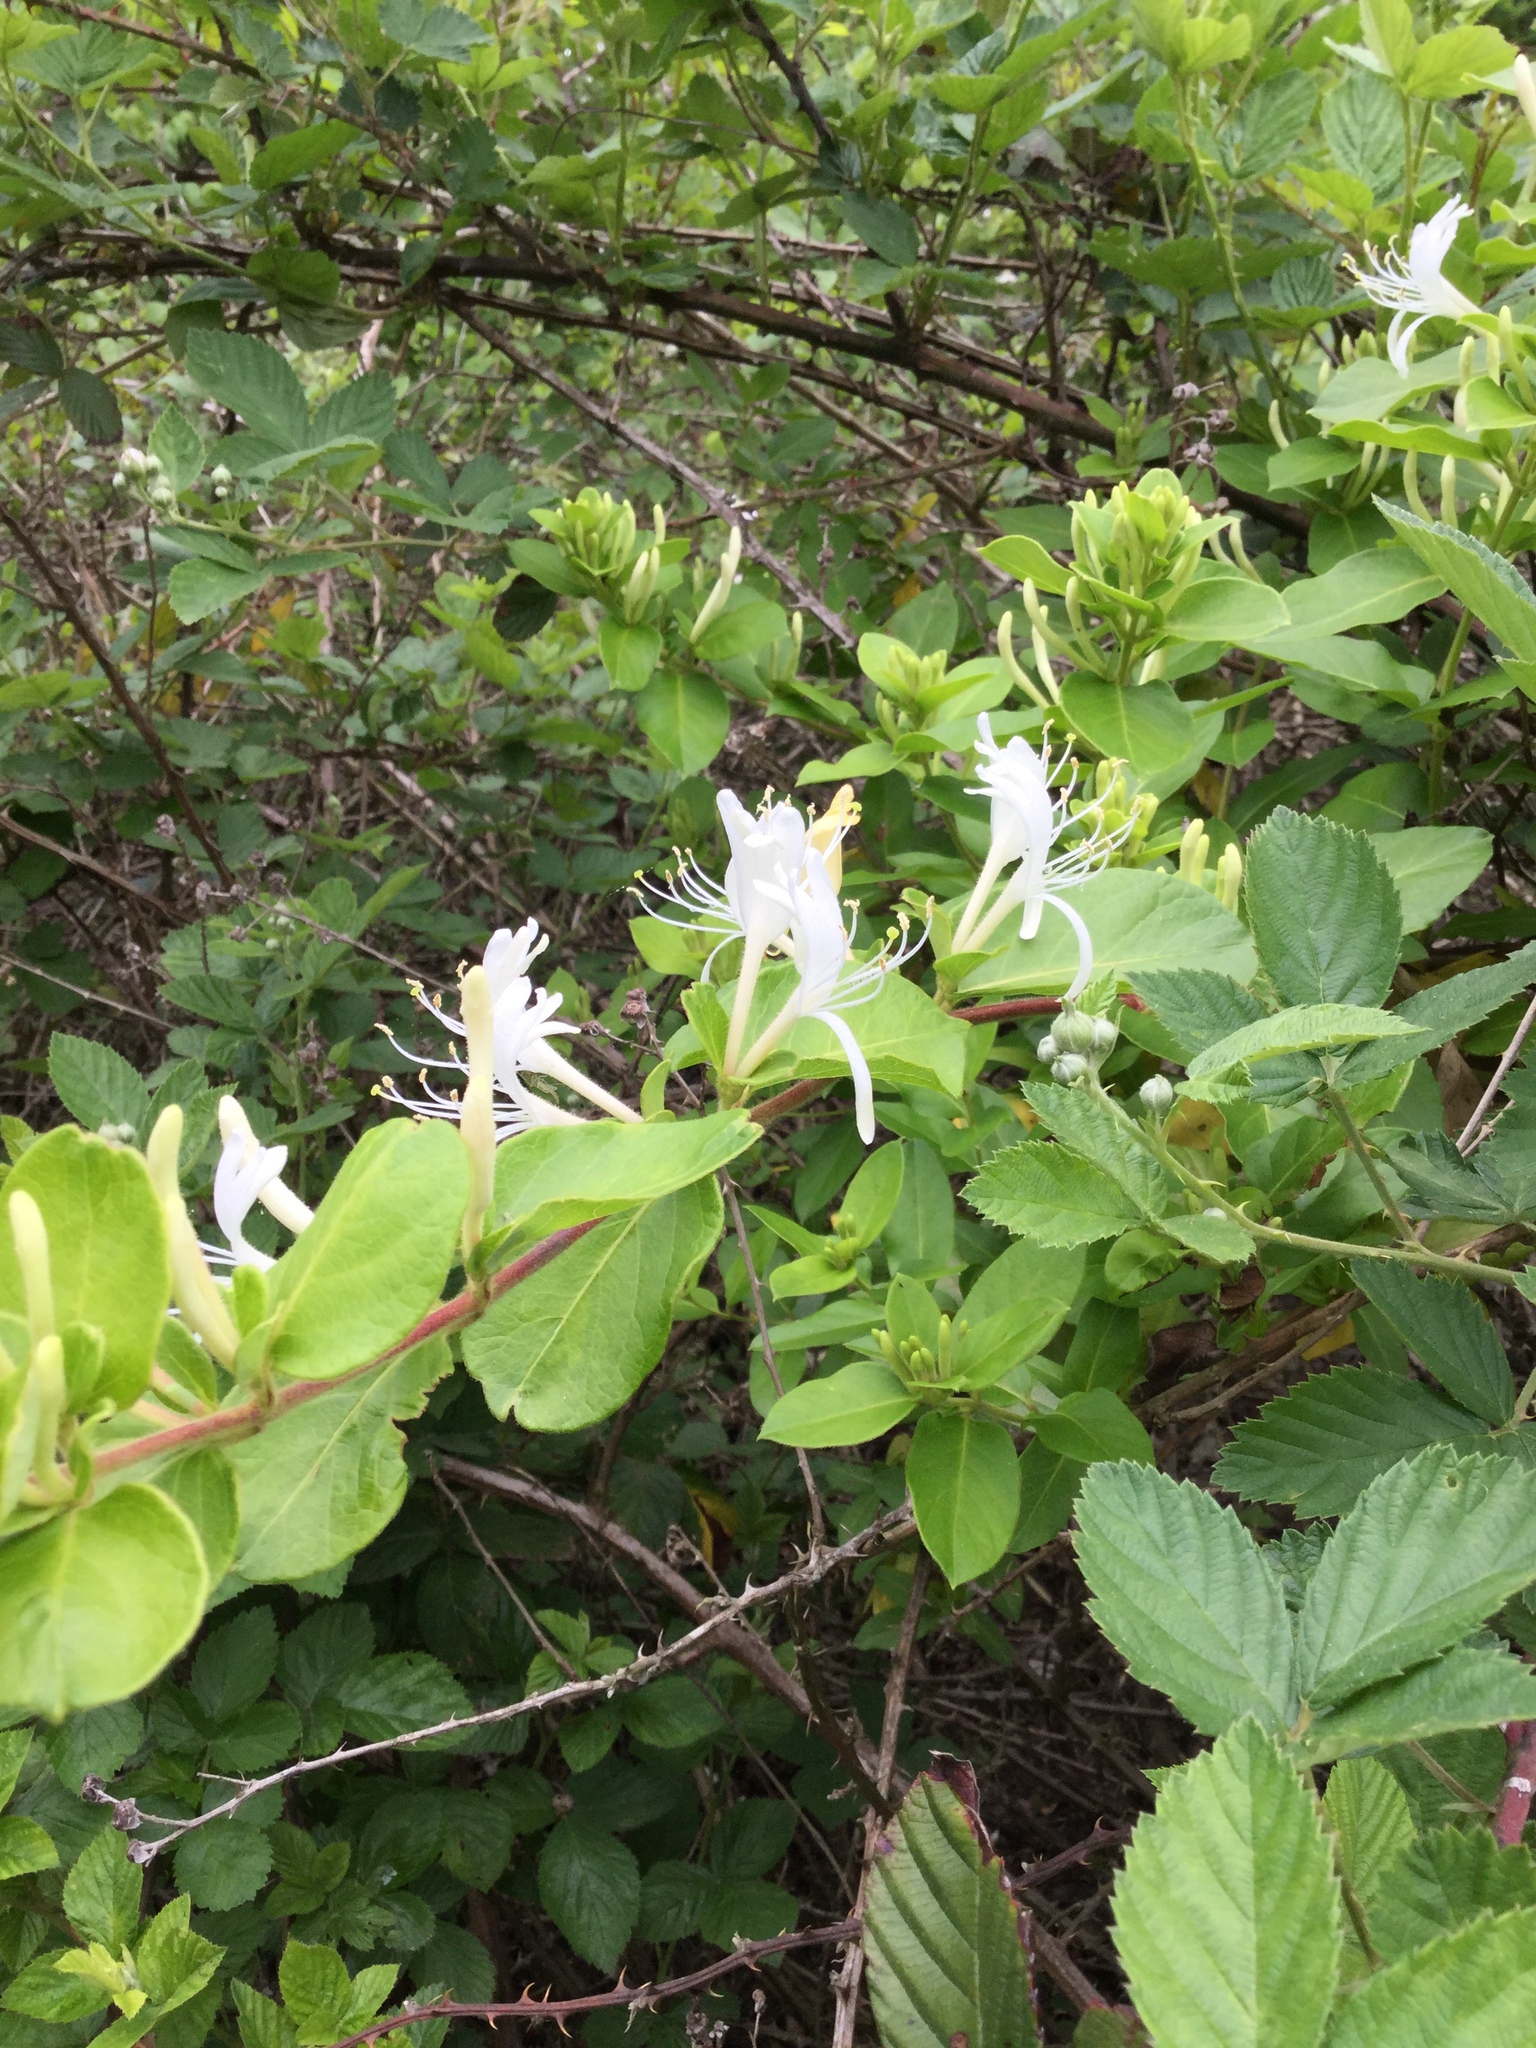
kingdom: Plantae
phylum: Tracheophyta
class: Magnoliopsida
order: Dipsacales
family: Caprifoliaceae
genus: Lonicera
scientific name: Lonicera japonica
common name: Japanese honeysuckle
